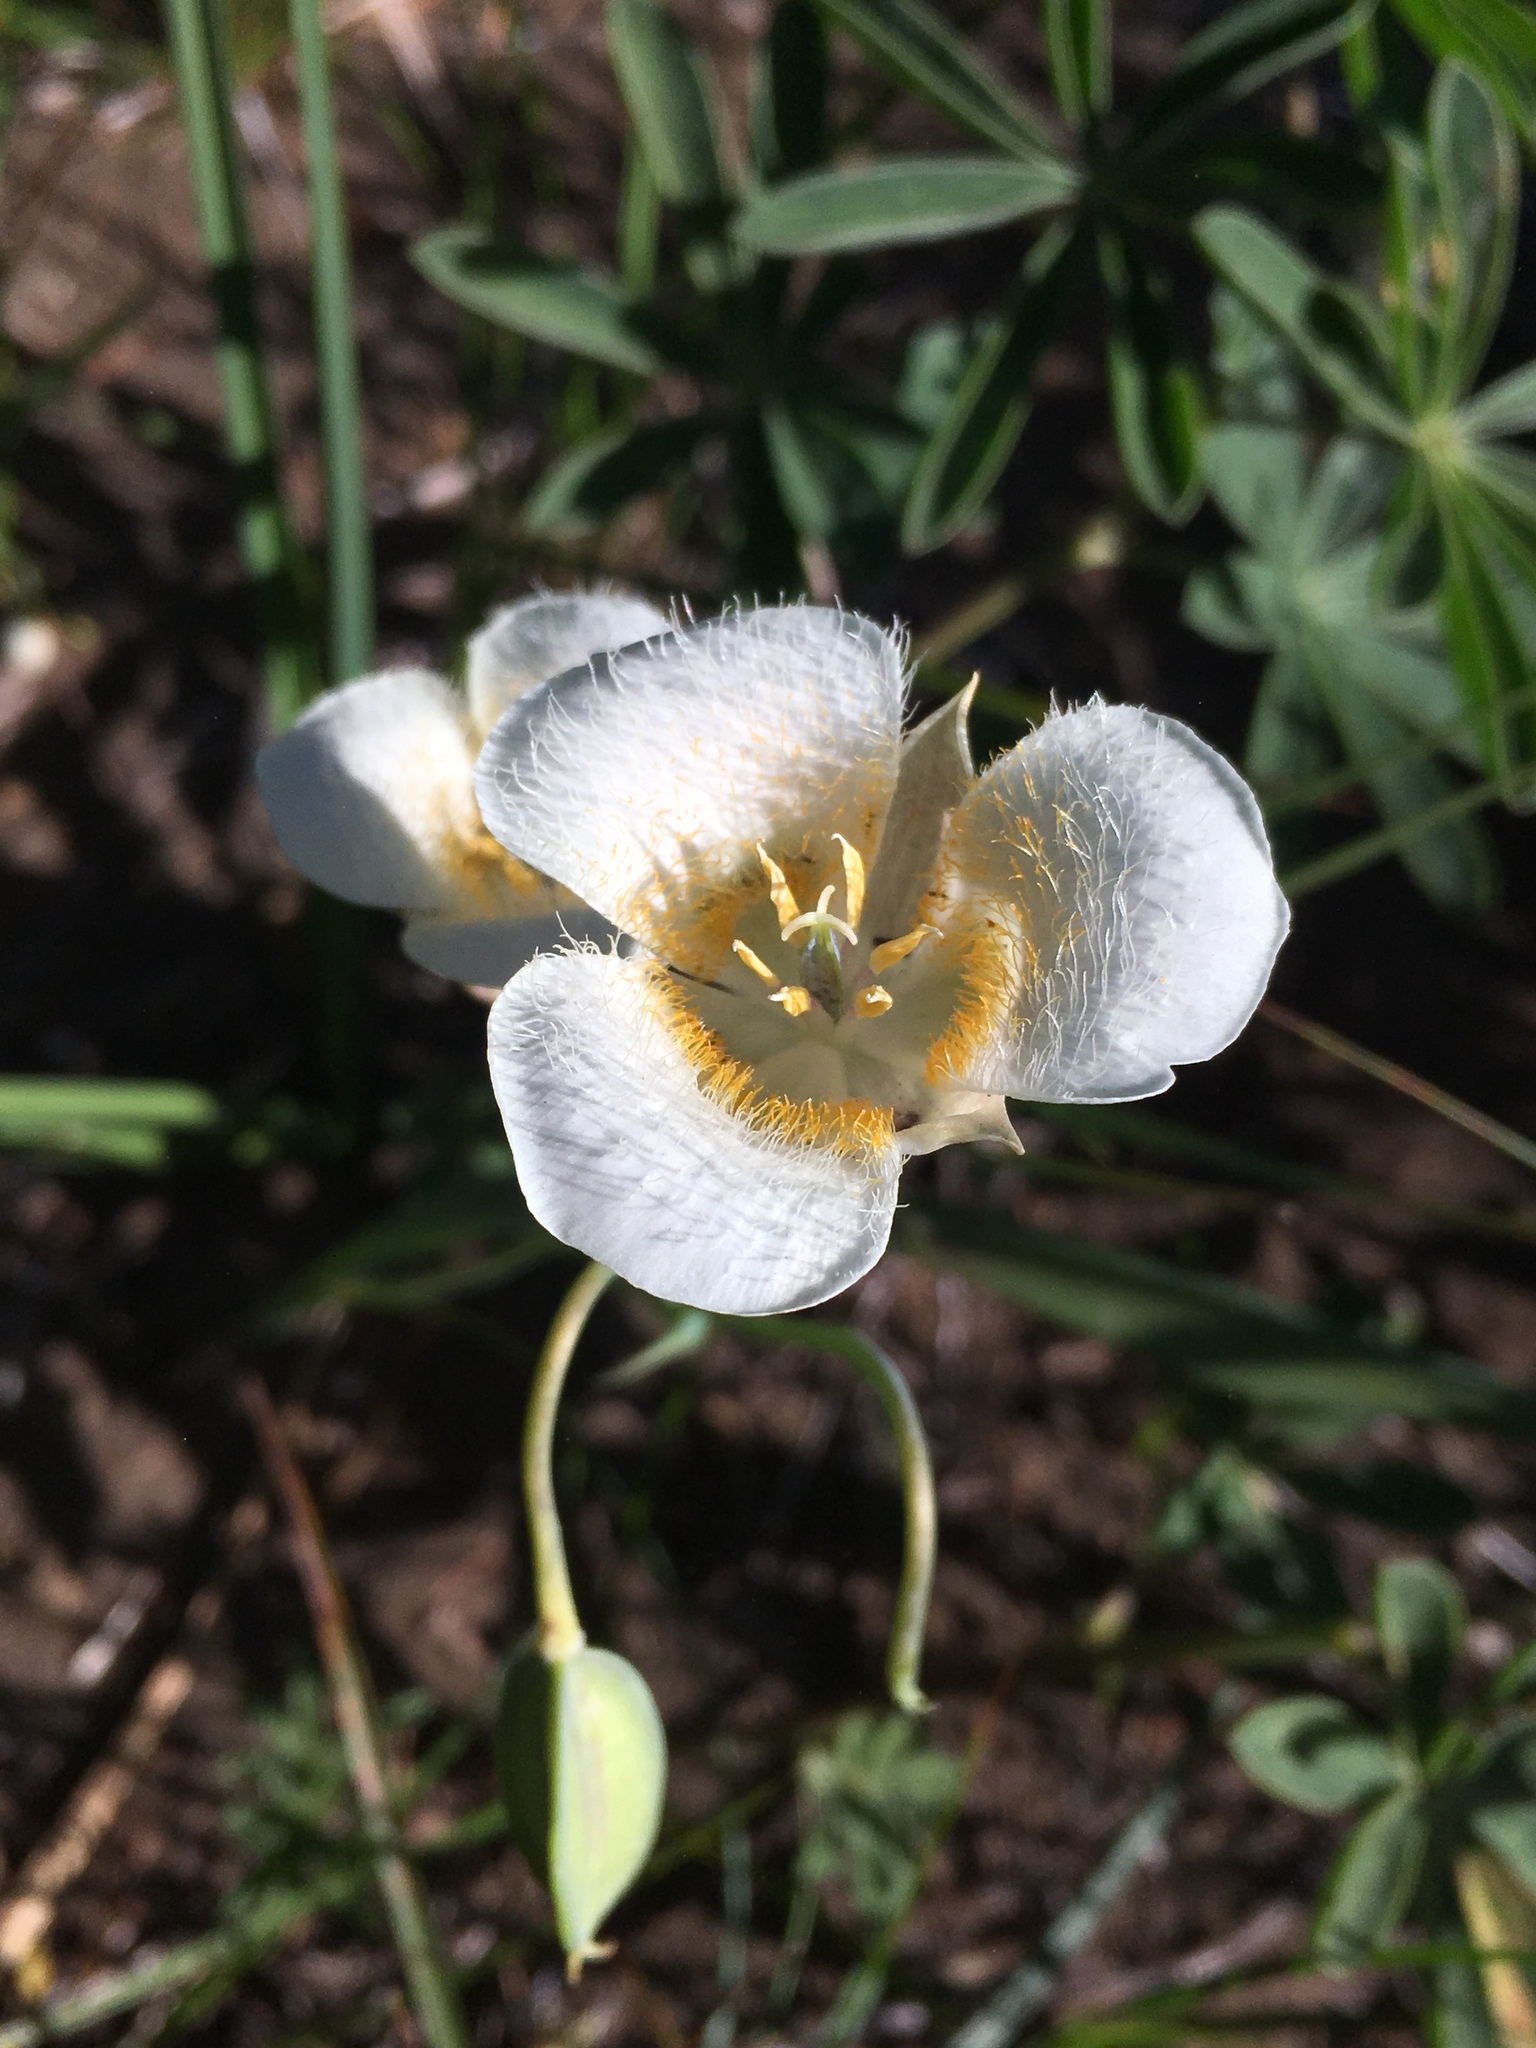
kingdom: Plantae
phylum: Tracheophyta
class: Liliopsida
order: Liliales
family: Liliaceae
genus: Calochortus
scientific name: Calochortus subalpinus
